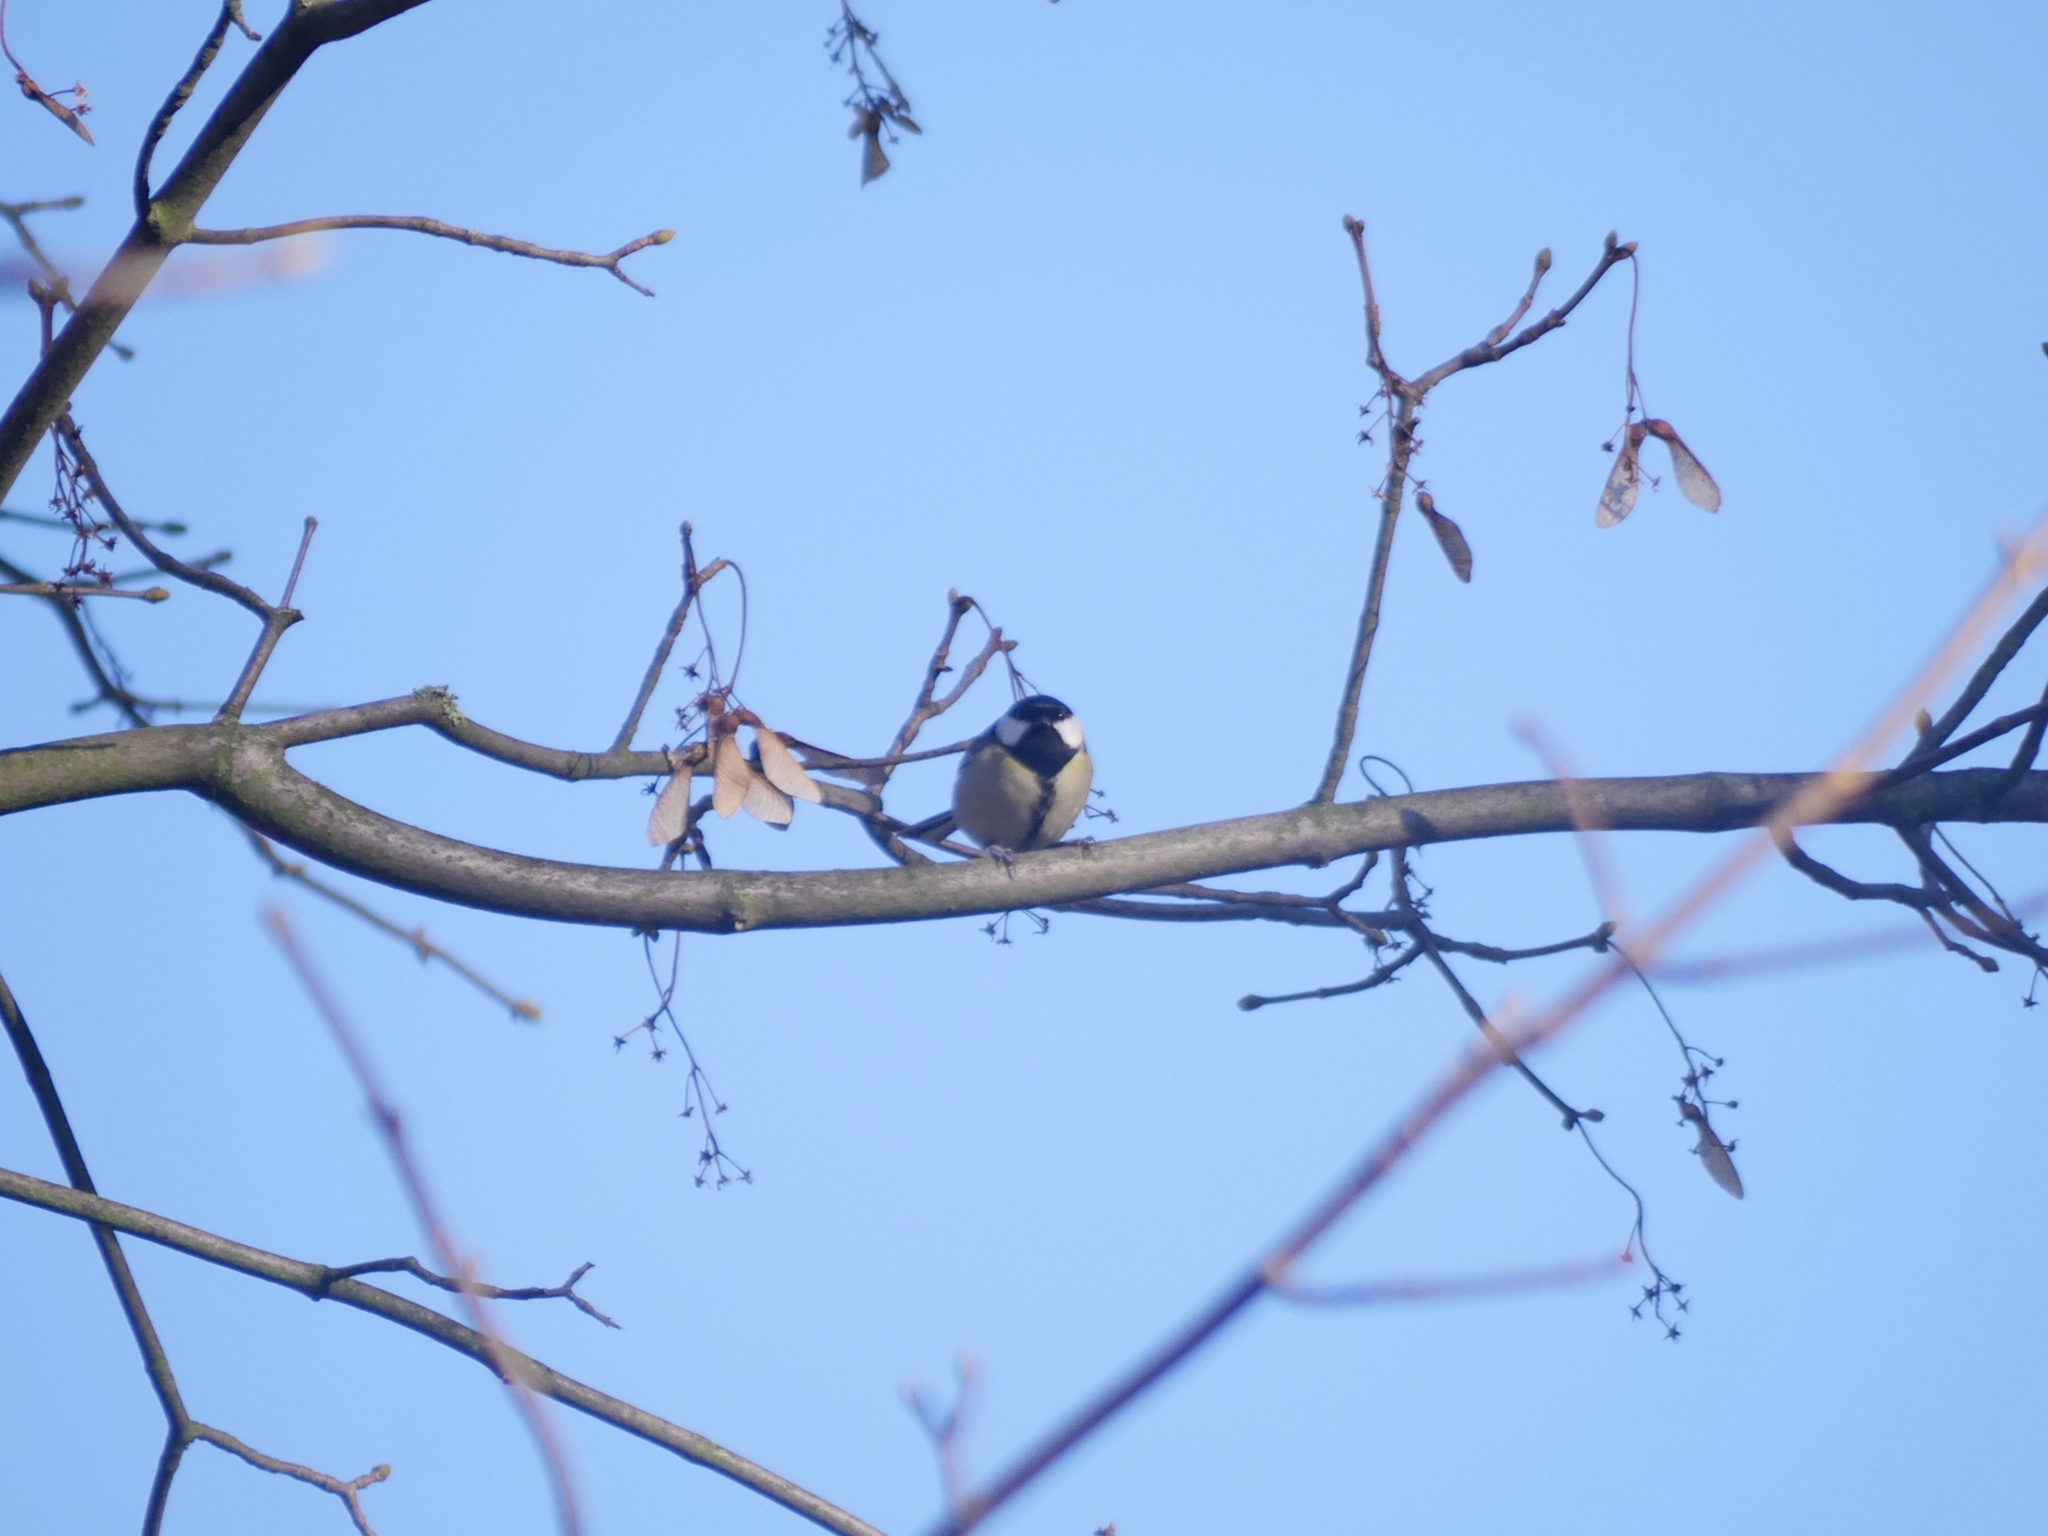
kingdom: Animalia
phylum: Chordata
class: Aves
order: Passeriformes
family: Paridae
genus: Parus
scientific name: Parus major
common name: Great tit
